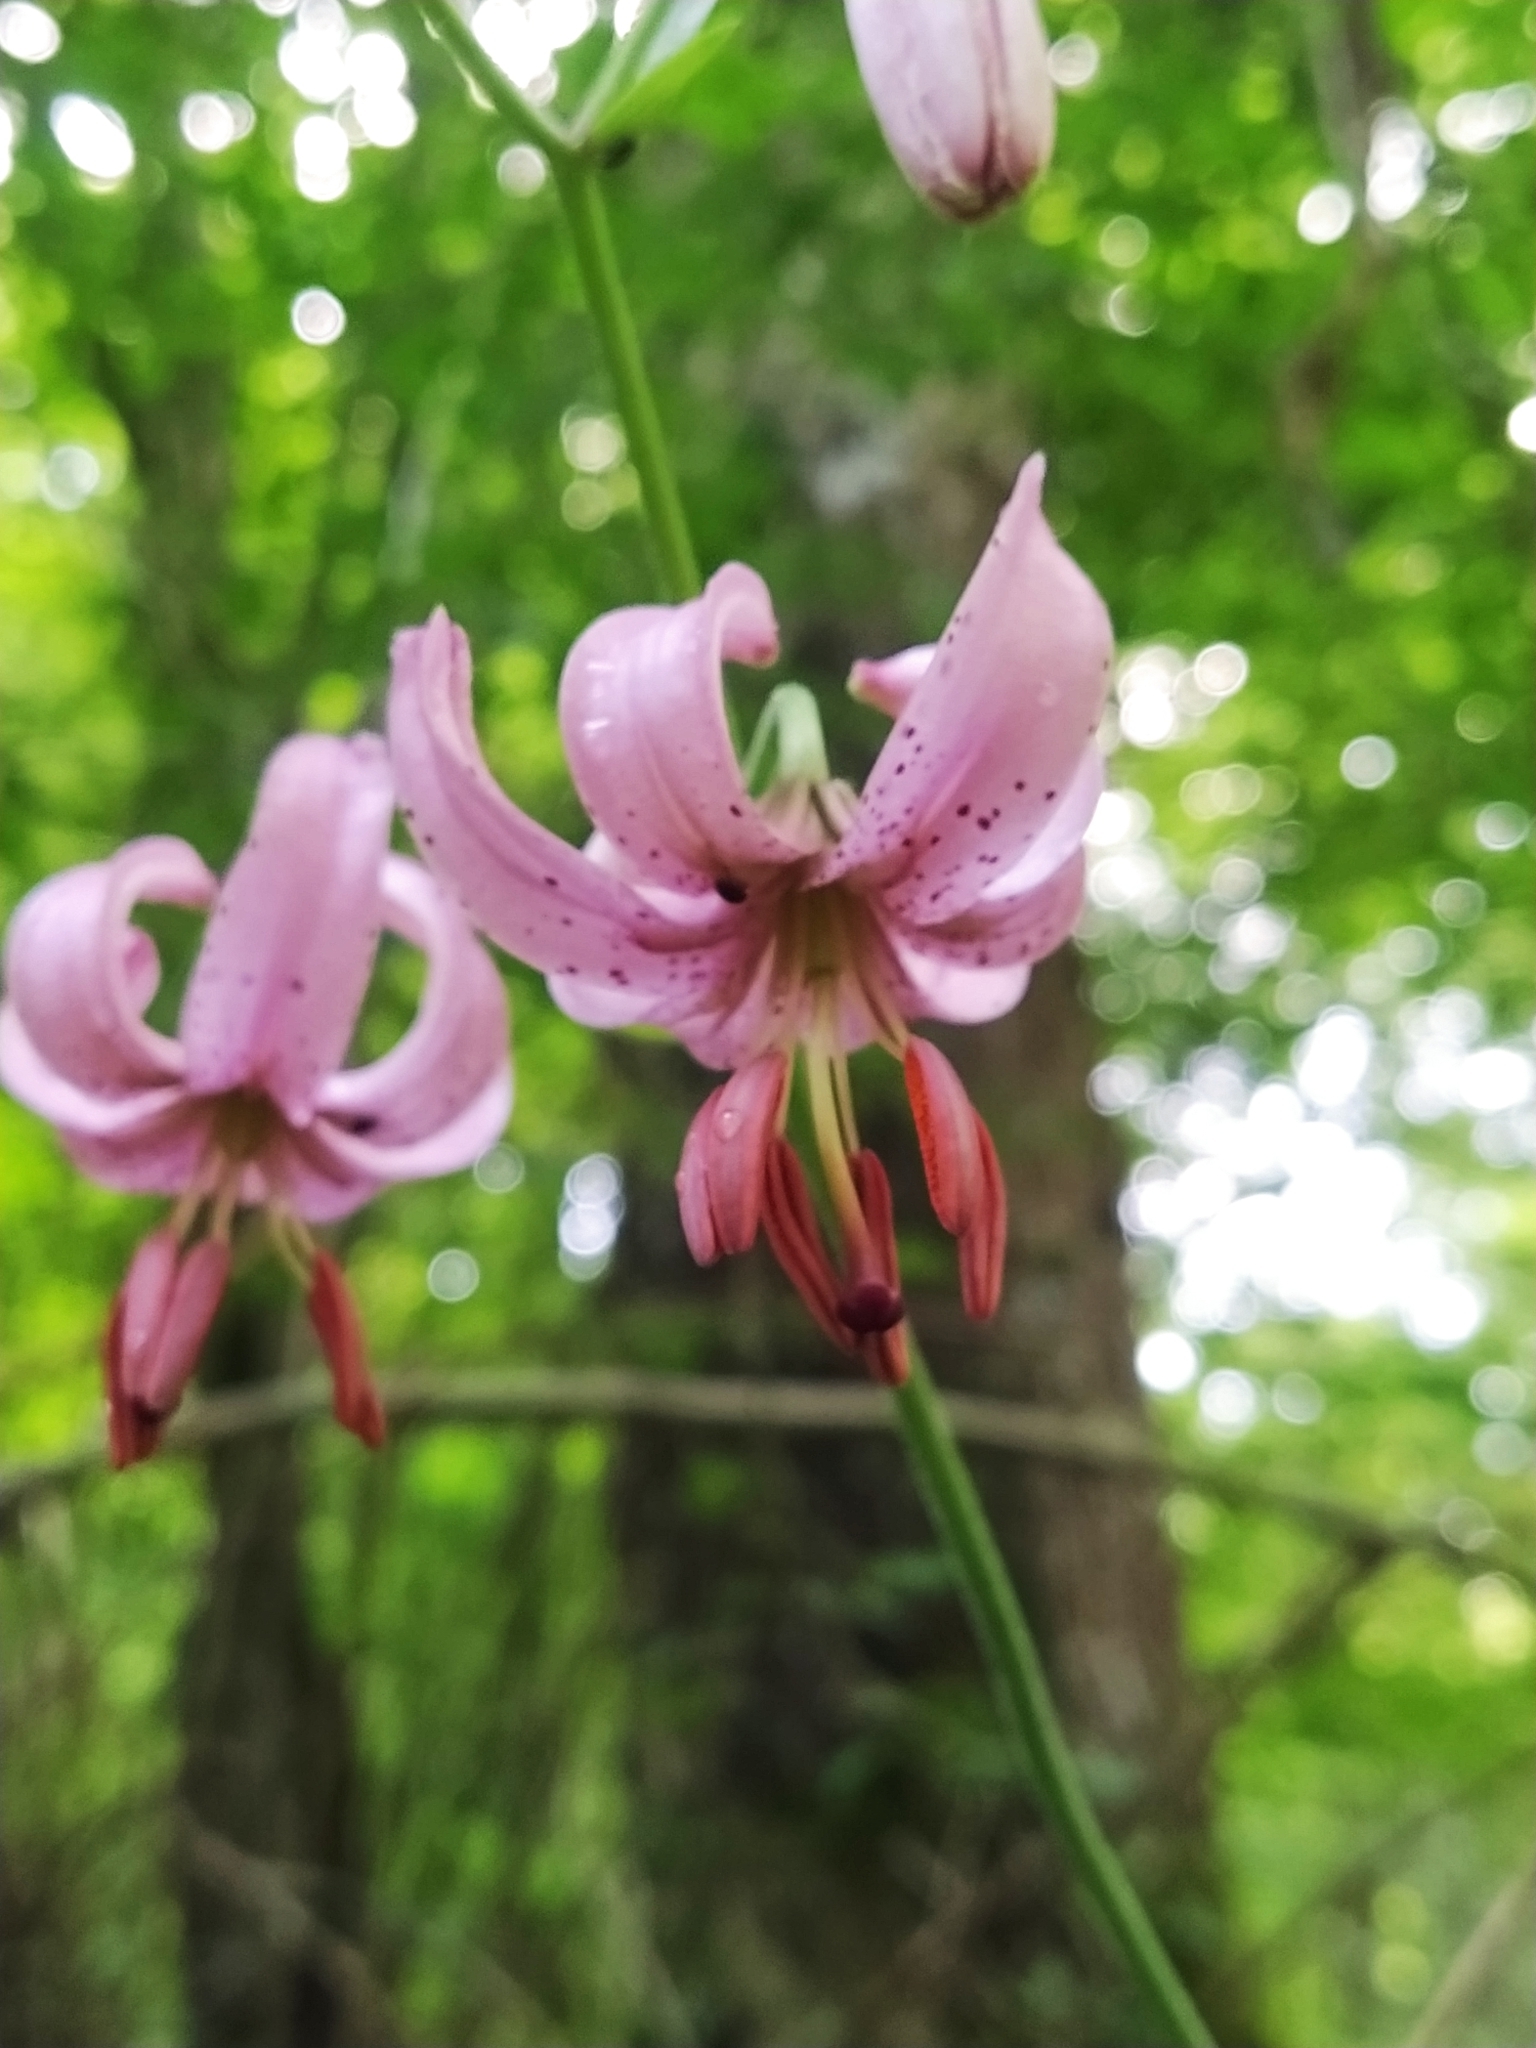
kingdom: Plantae
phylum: Tracheophyta
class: Liliopsida
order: Liliales
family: Liliaceae
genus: Lilium
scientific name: Lilium martagon
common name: Martagon lily
